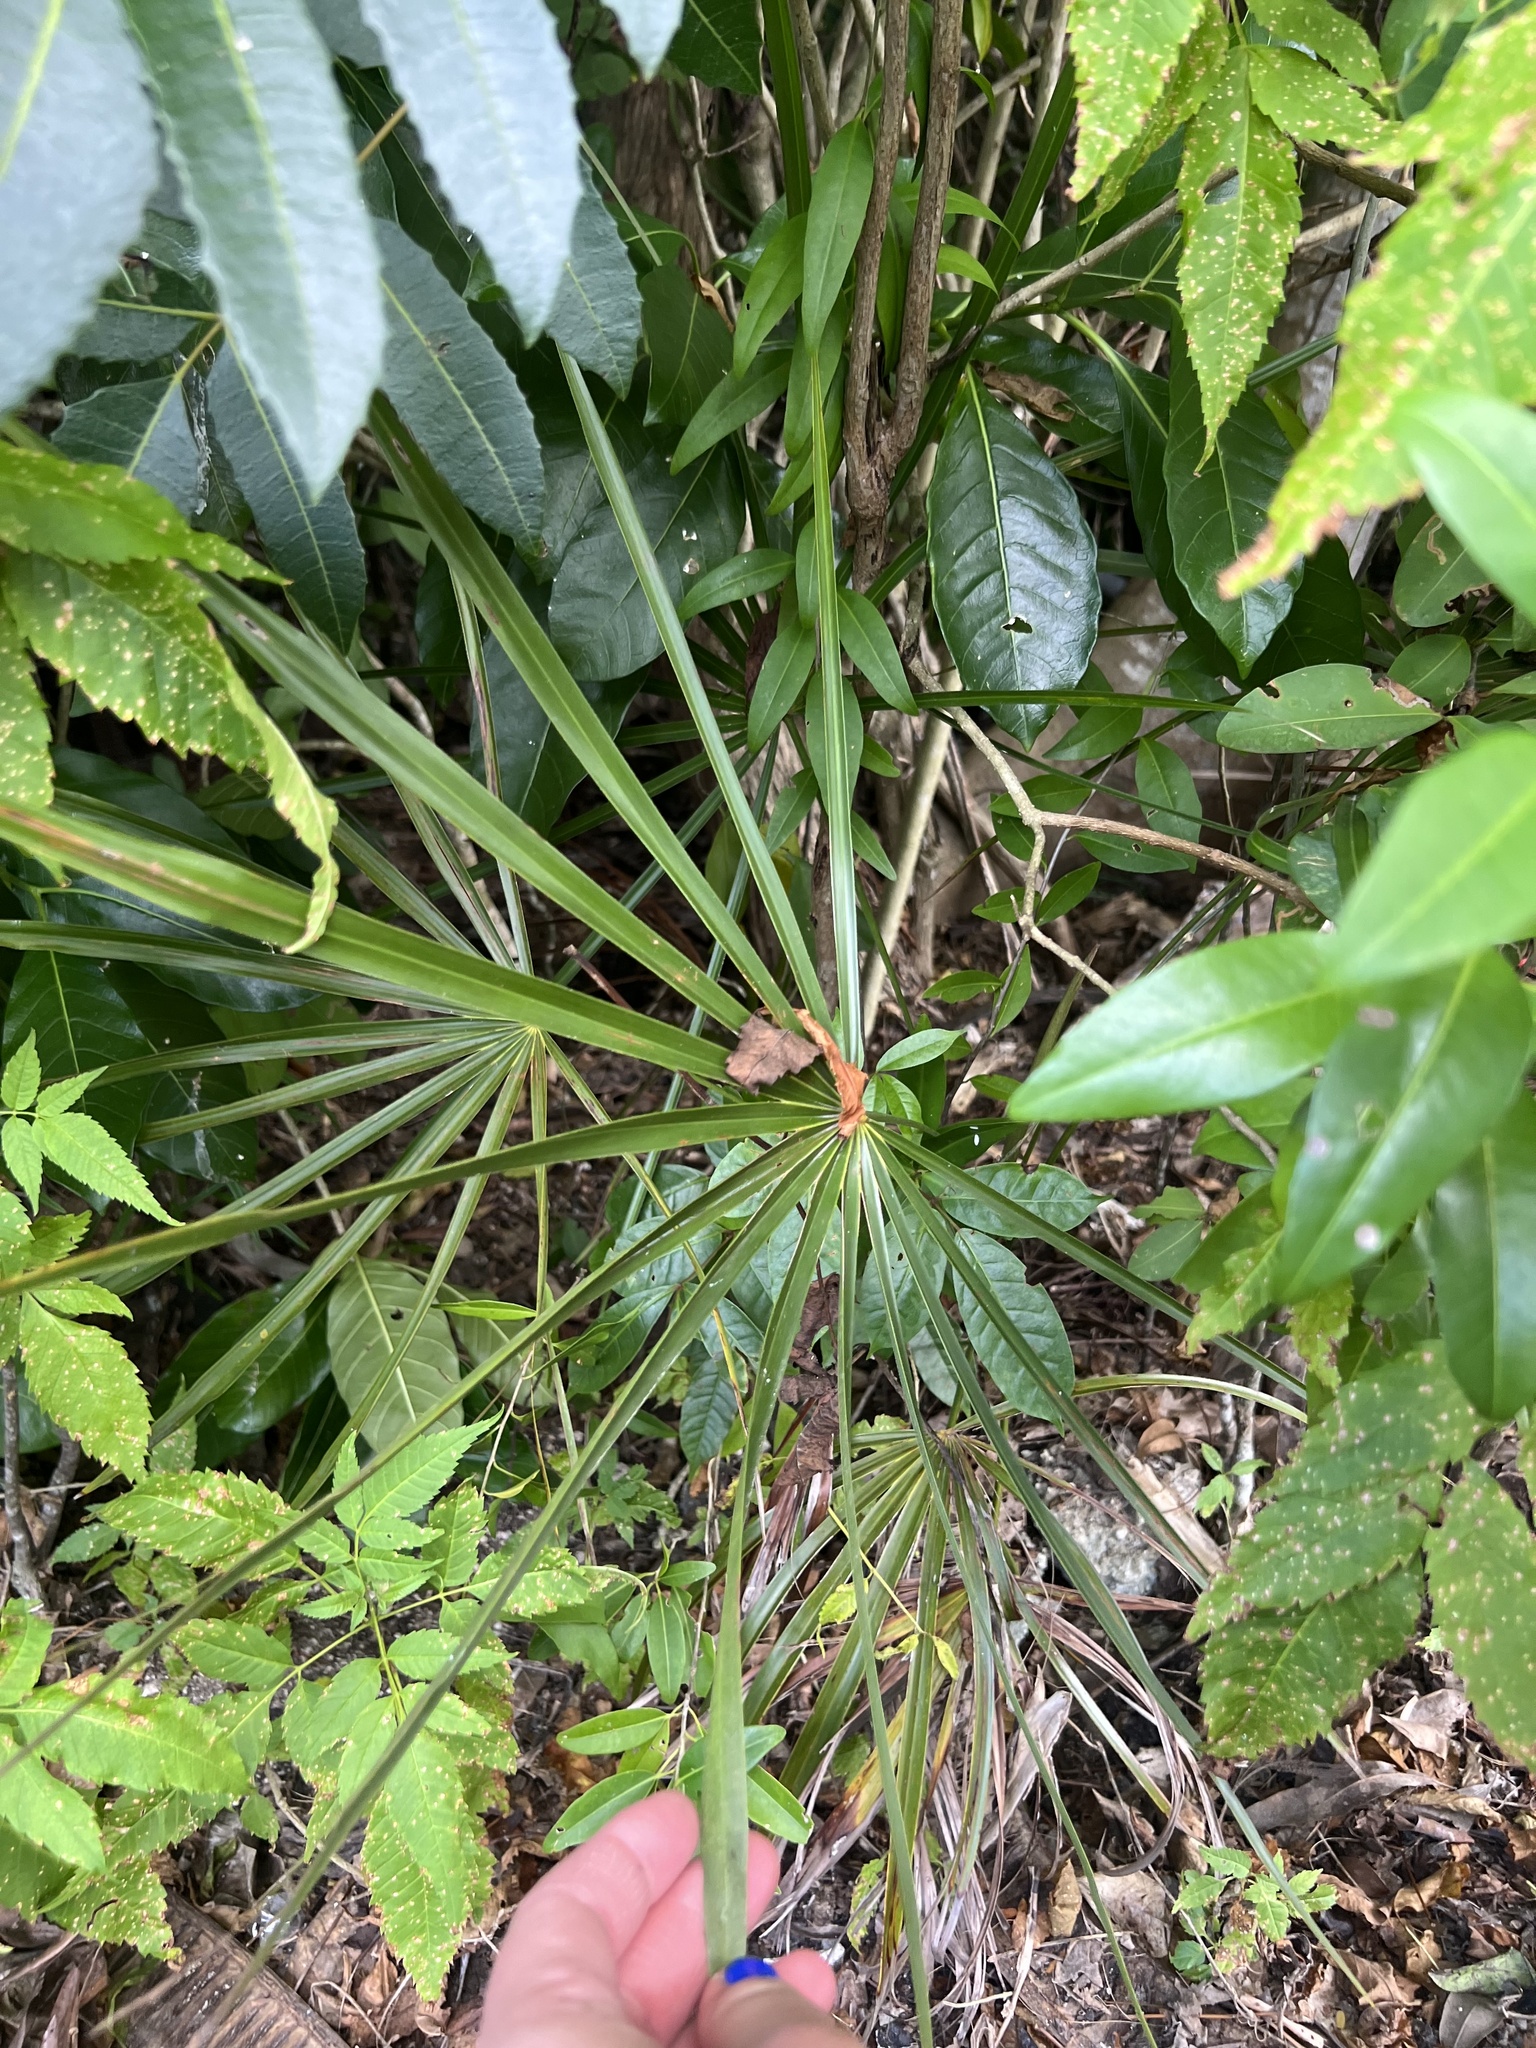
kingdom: Plantae
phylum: Tracheophyta
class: Liliopsida
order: Arecales
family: Arecaceae
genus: Thrinax
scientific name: Thrinax radiata
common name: Florida thatch
